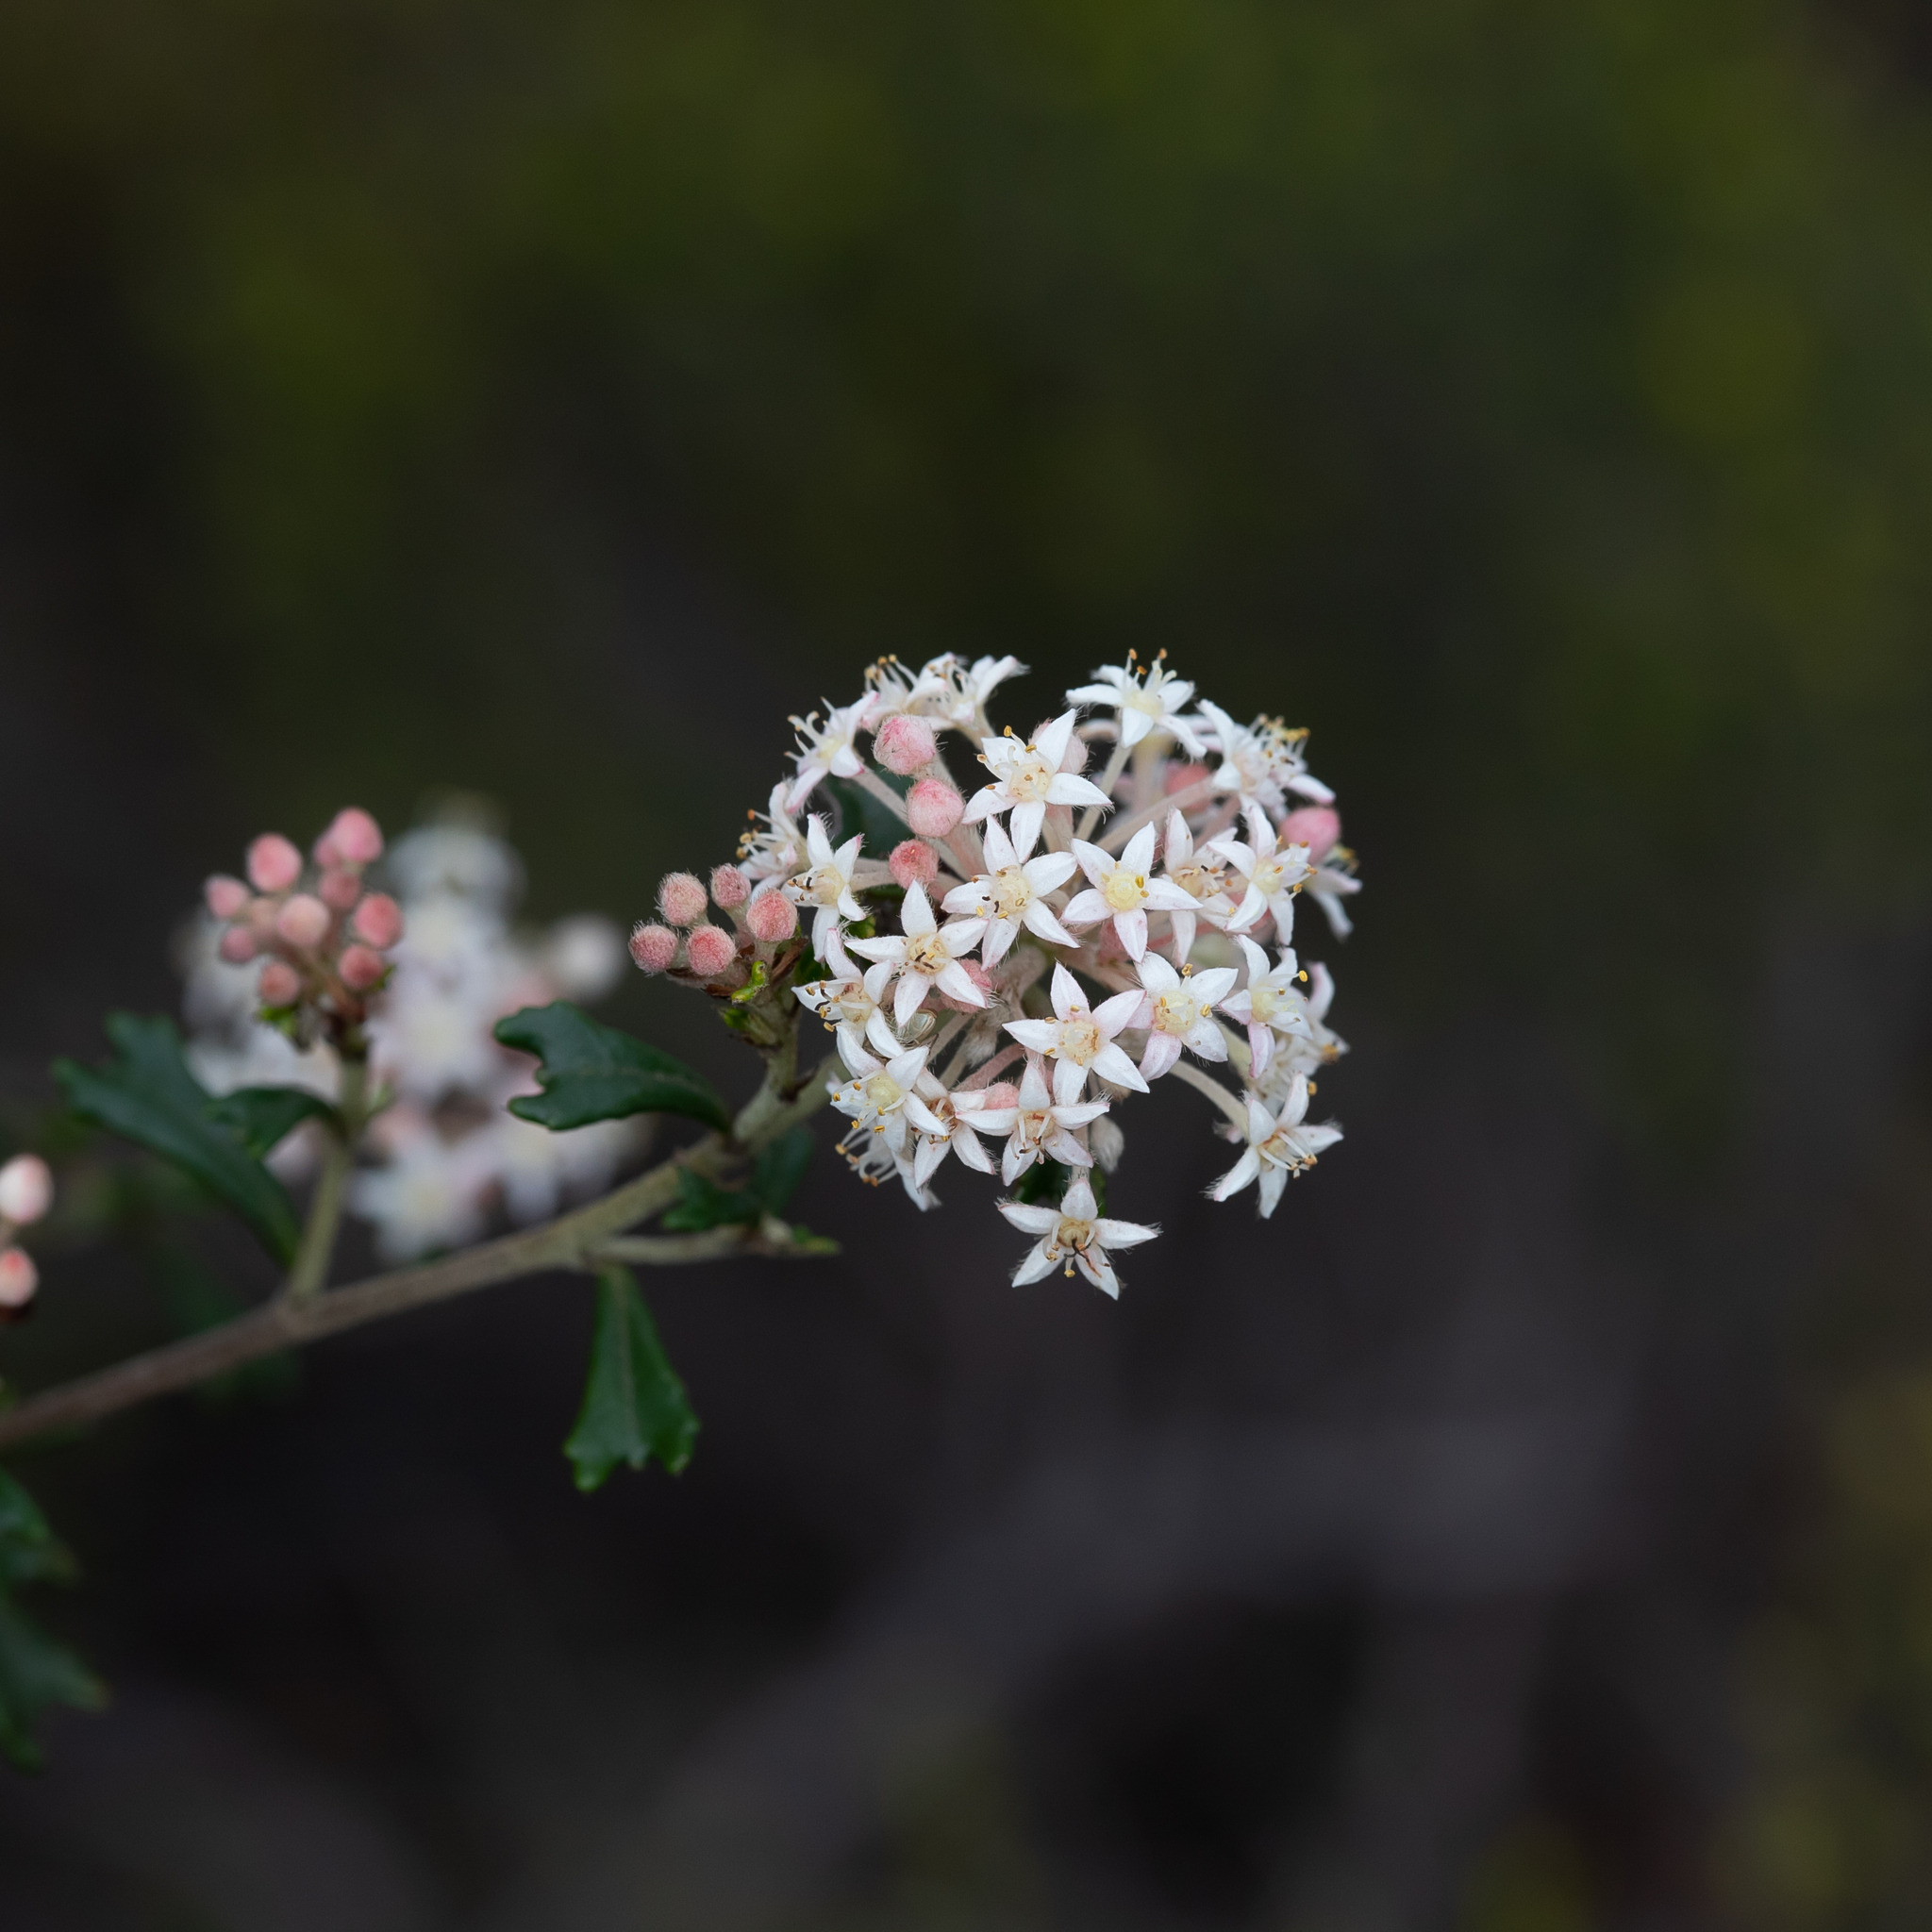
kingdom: Plantae
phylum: Tracheophyta
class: Magnoliopsida
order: Rosales
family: Rhamnaceae
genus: Pomaderris
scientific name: Pomaderris obcordata
